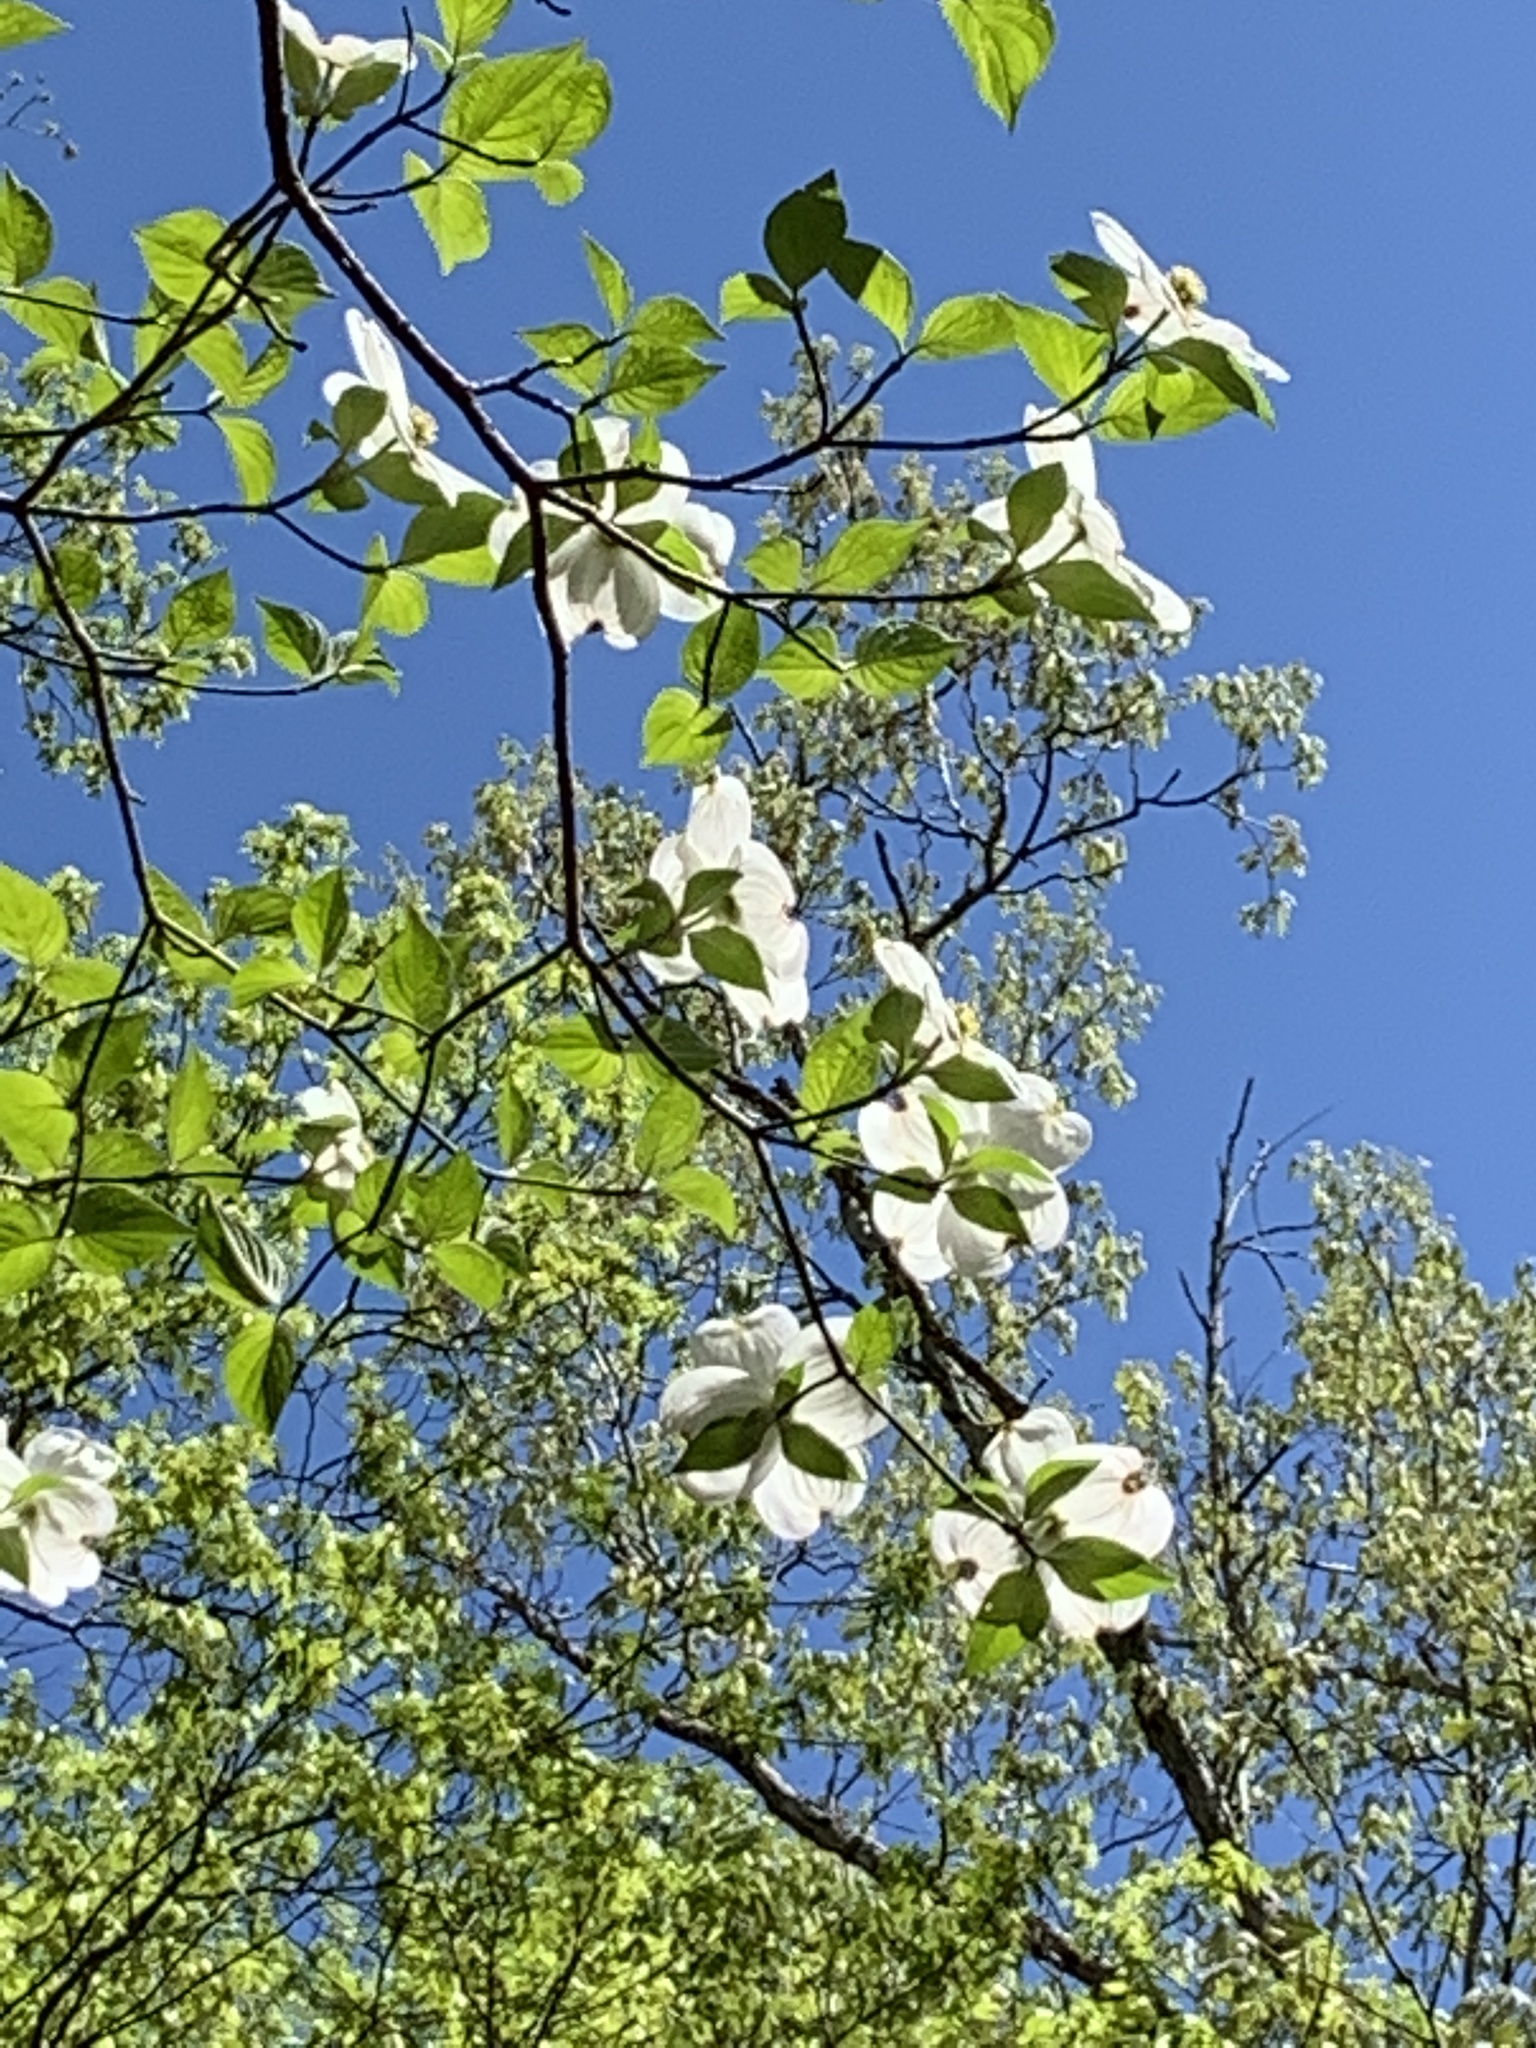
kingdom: Plantae
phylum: Tracheophyta
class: Magnoliopsida
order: Cornales
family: Cornaceae
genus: Cornus
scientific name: Cornus florida
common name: Flowering dogwood
